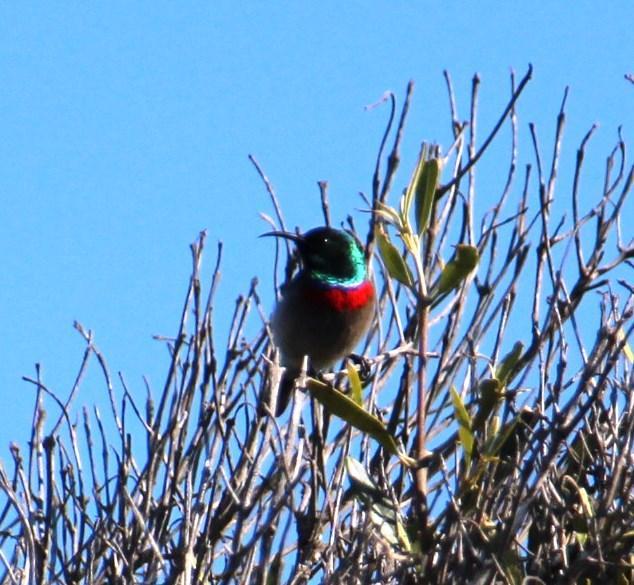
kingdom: Animalia
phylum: Chordata
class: Aves
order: Passeriformes
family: Nectariniidae
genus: Cinnyris
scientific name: Cinnyris chalybeus
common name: Southern double-collared sunbird
